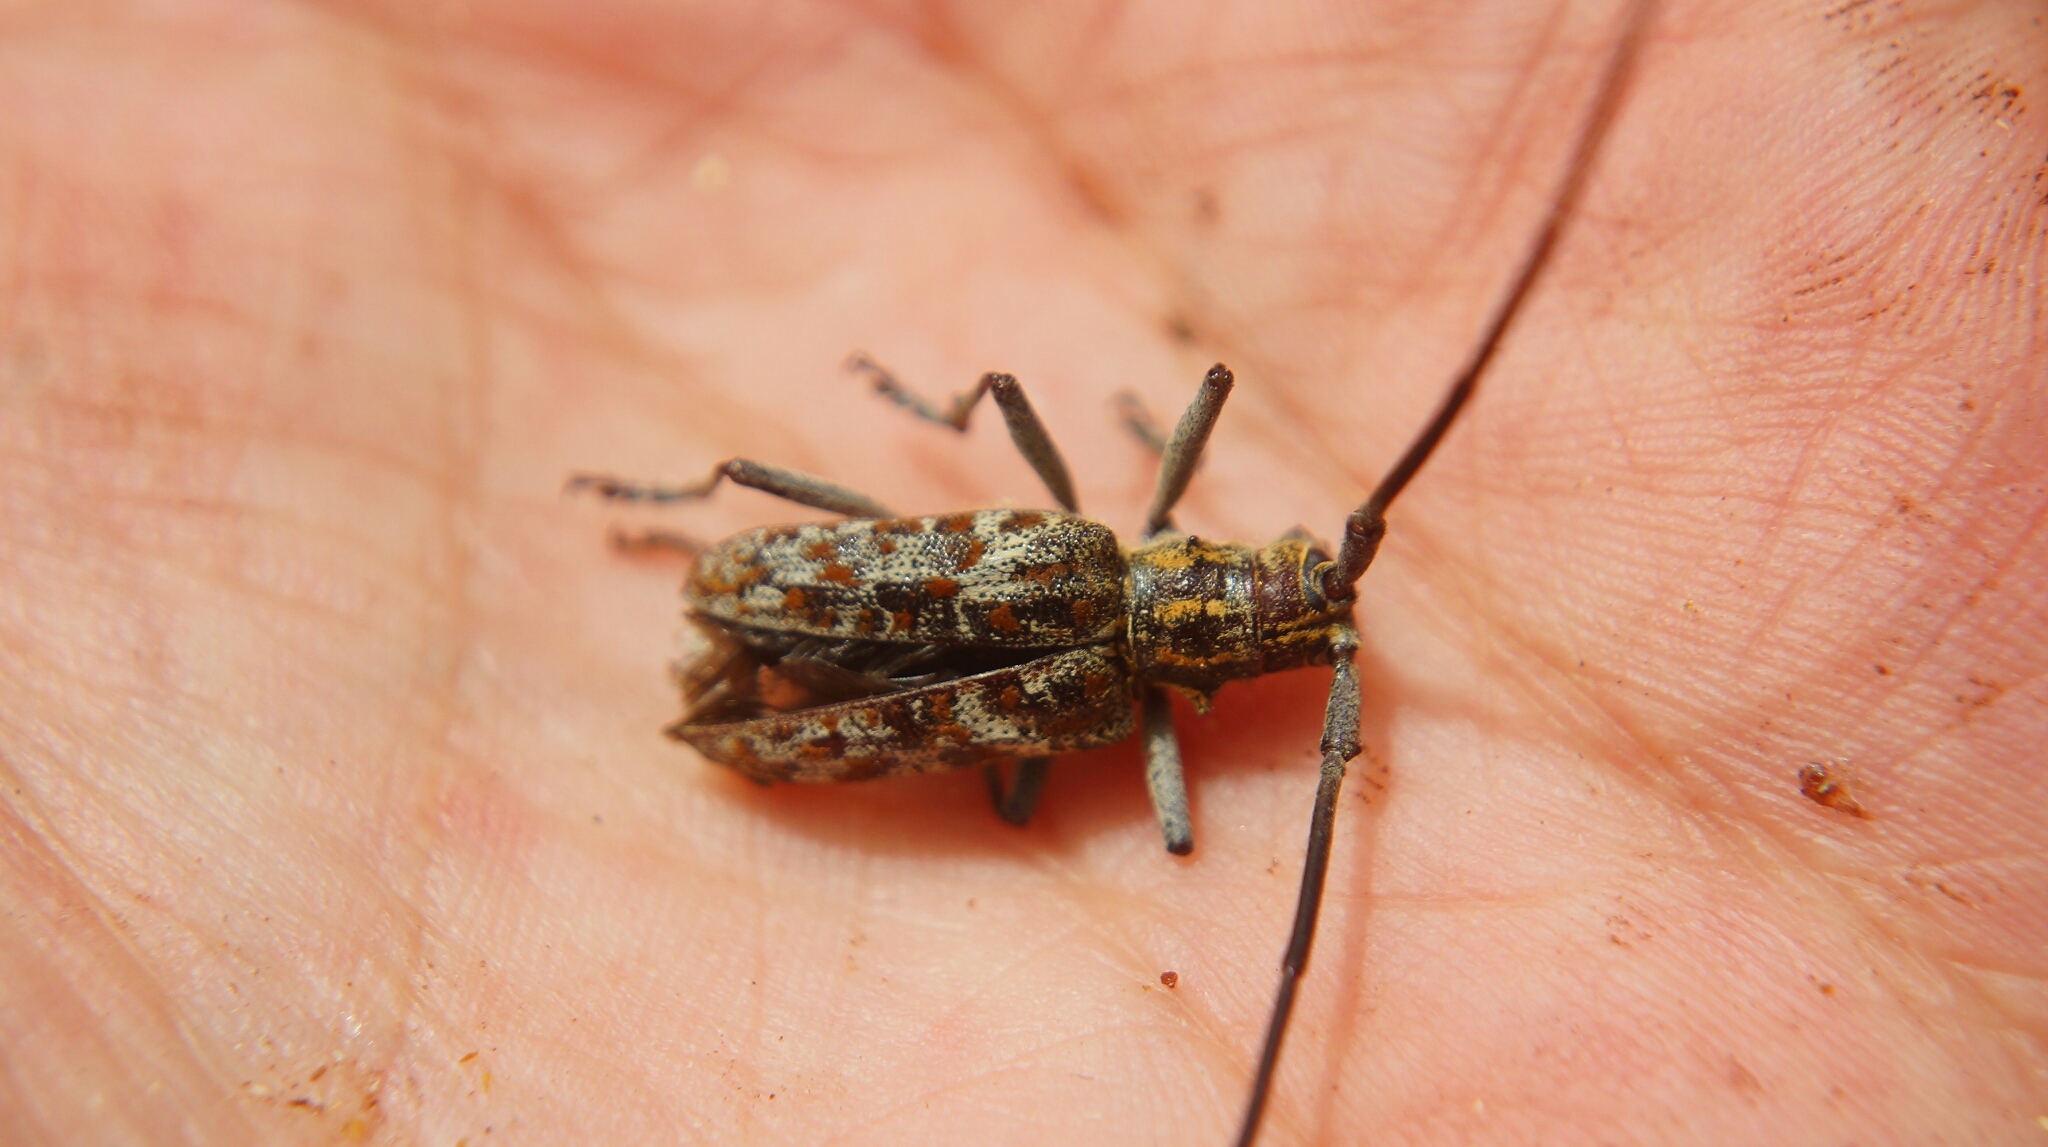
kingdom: Animalia
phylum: Arthropoda
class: Insecta
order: Coleoptera
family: Cerambycidae
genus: Monochamus
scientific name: Monochamus clamator
